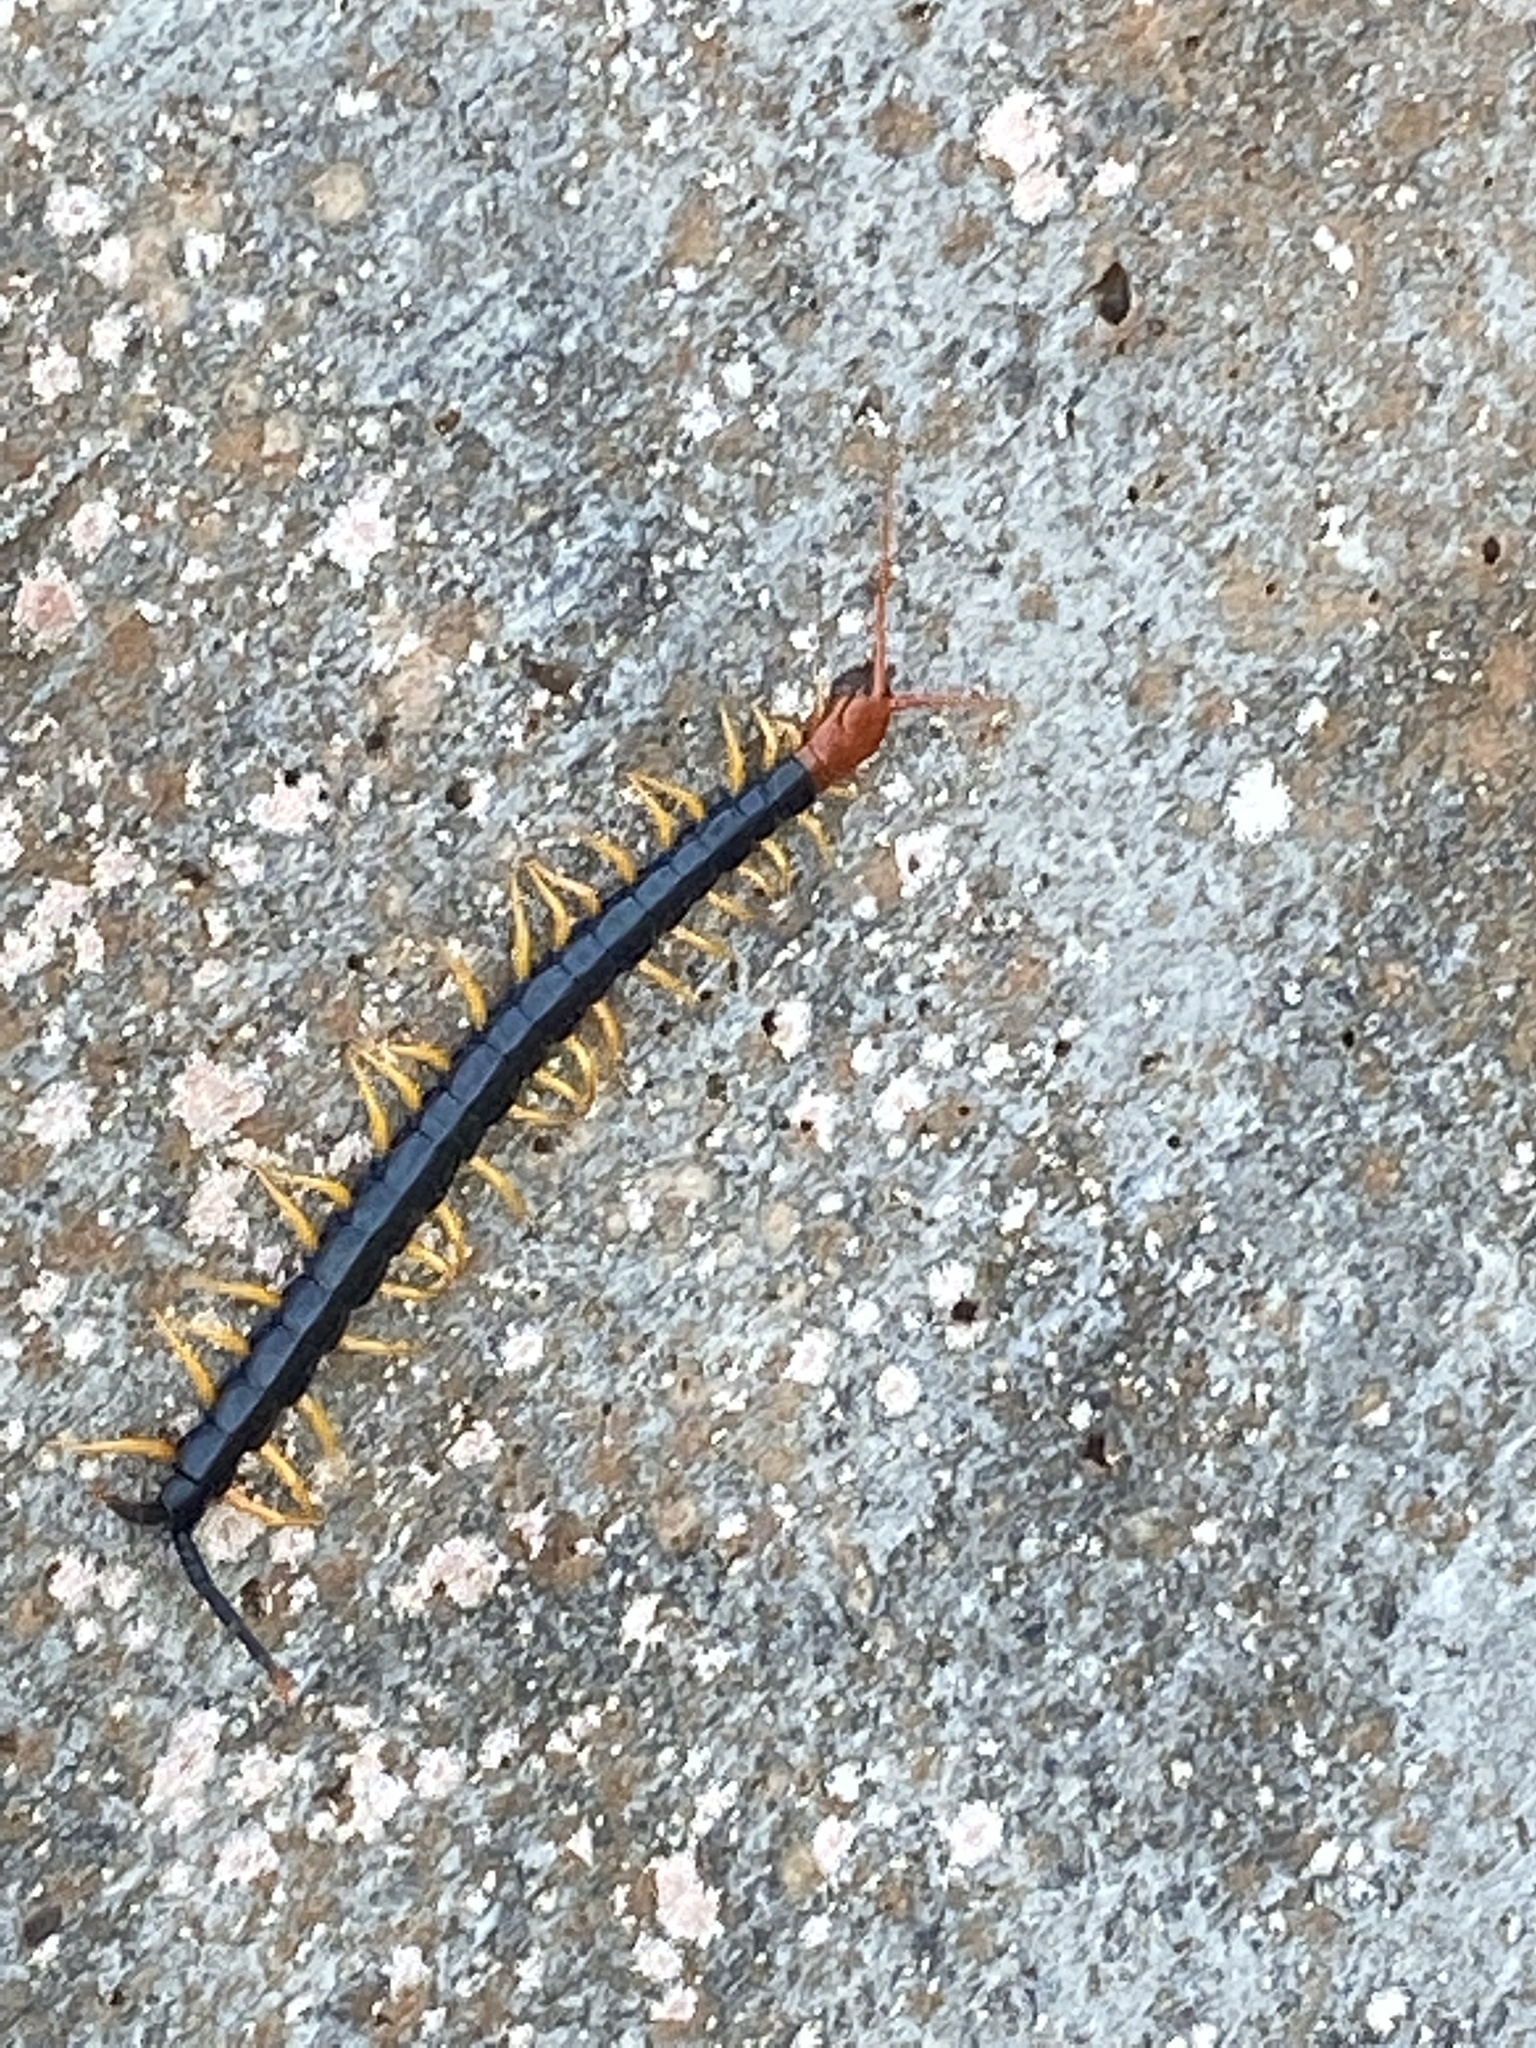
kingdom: Animalia
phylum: Arthropoda
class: Chilopoda
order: Scolopendromorpha
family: Scolopendridae
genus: Scolopendra
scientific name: Scolopendra heros
